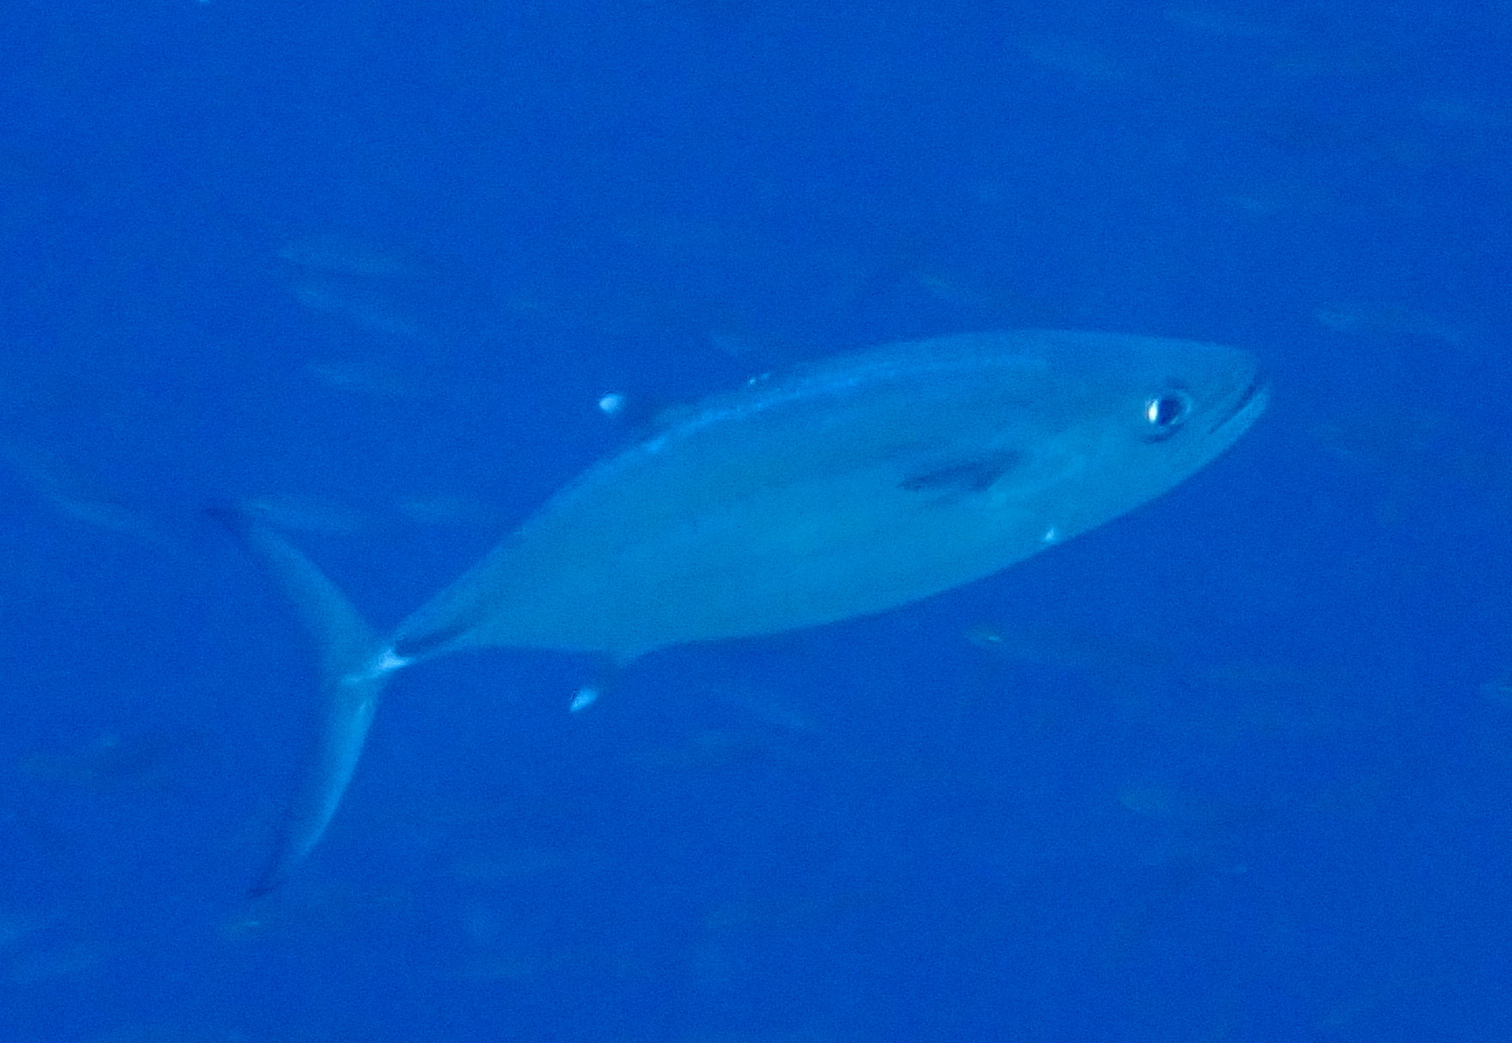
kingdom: Animalia
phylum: Chordata
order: Perciformes
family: Scombridae
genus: Gymnosarda
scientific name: Gymnosarda unicolor
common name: Dogtooth tuna
